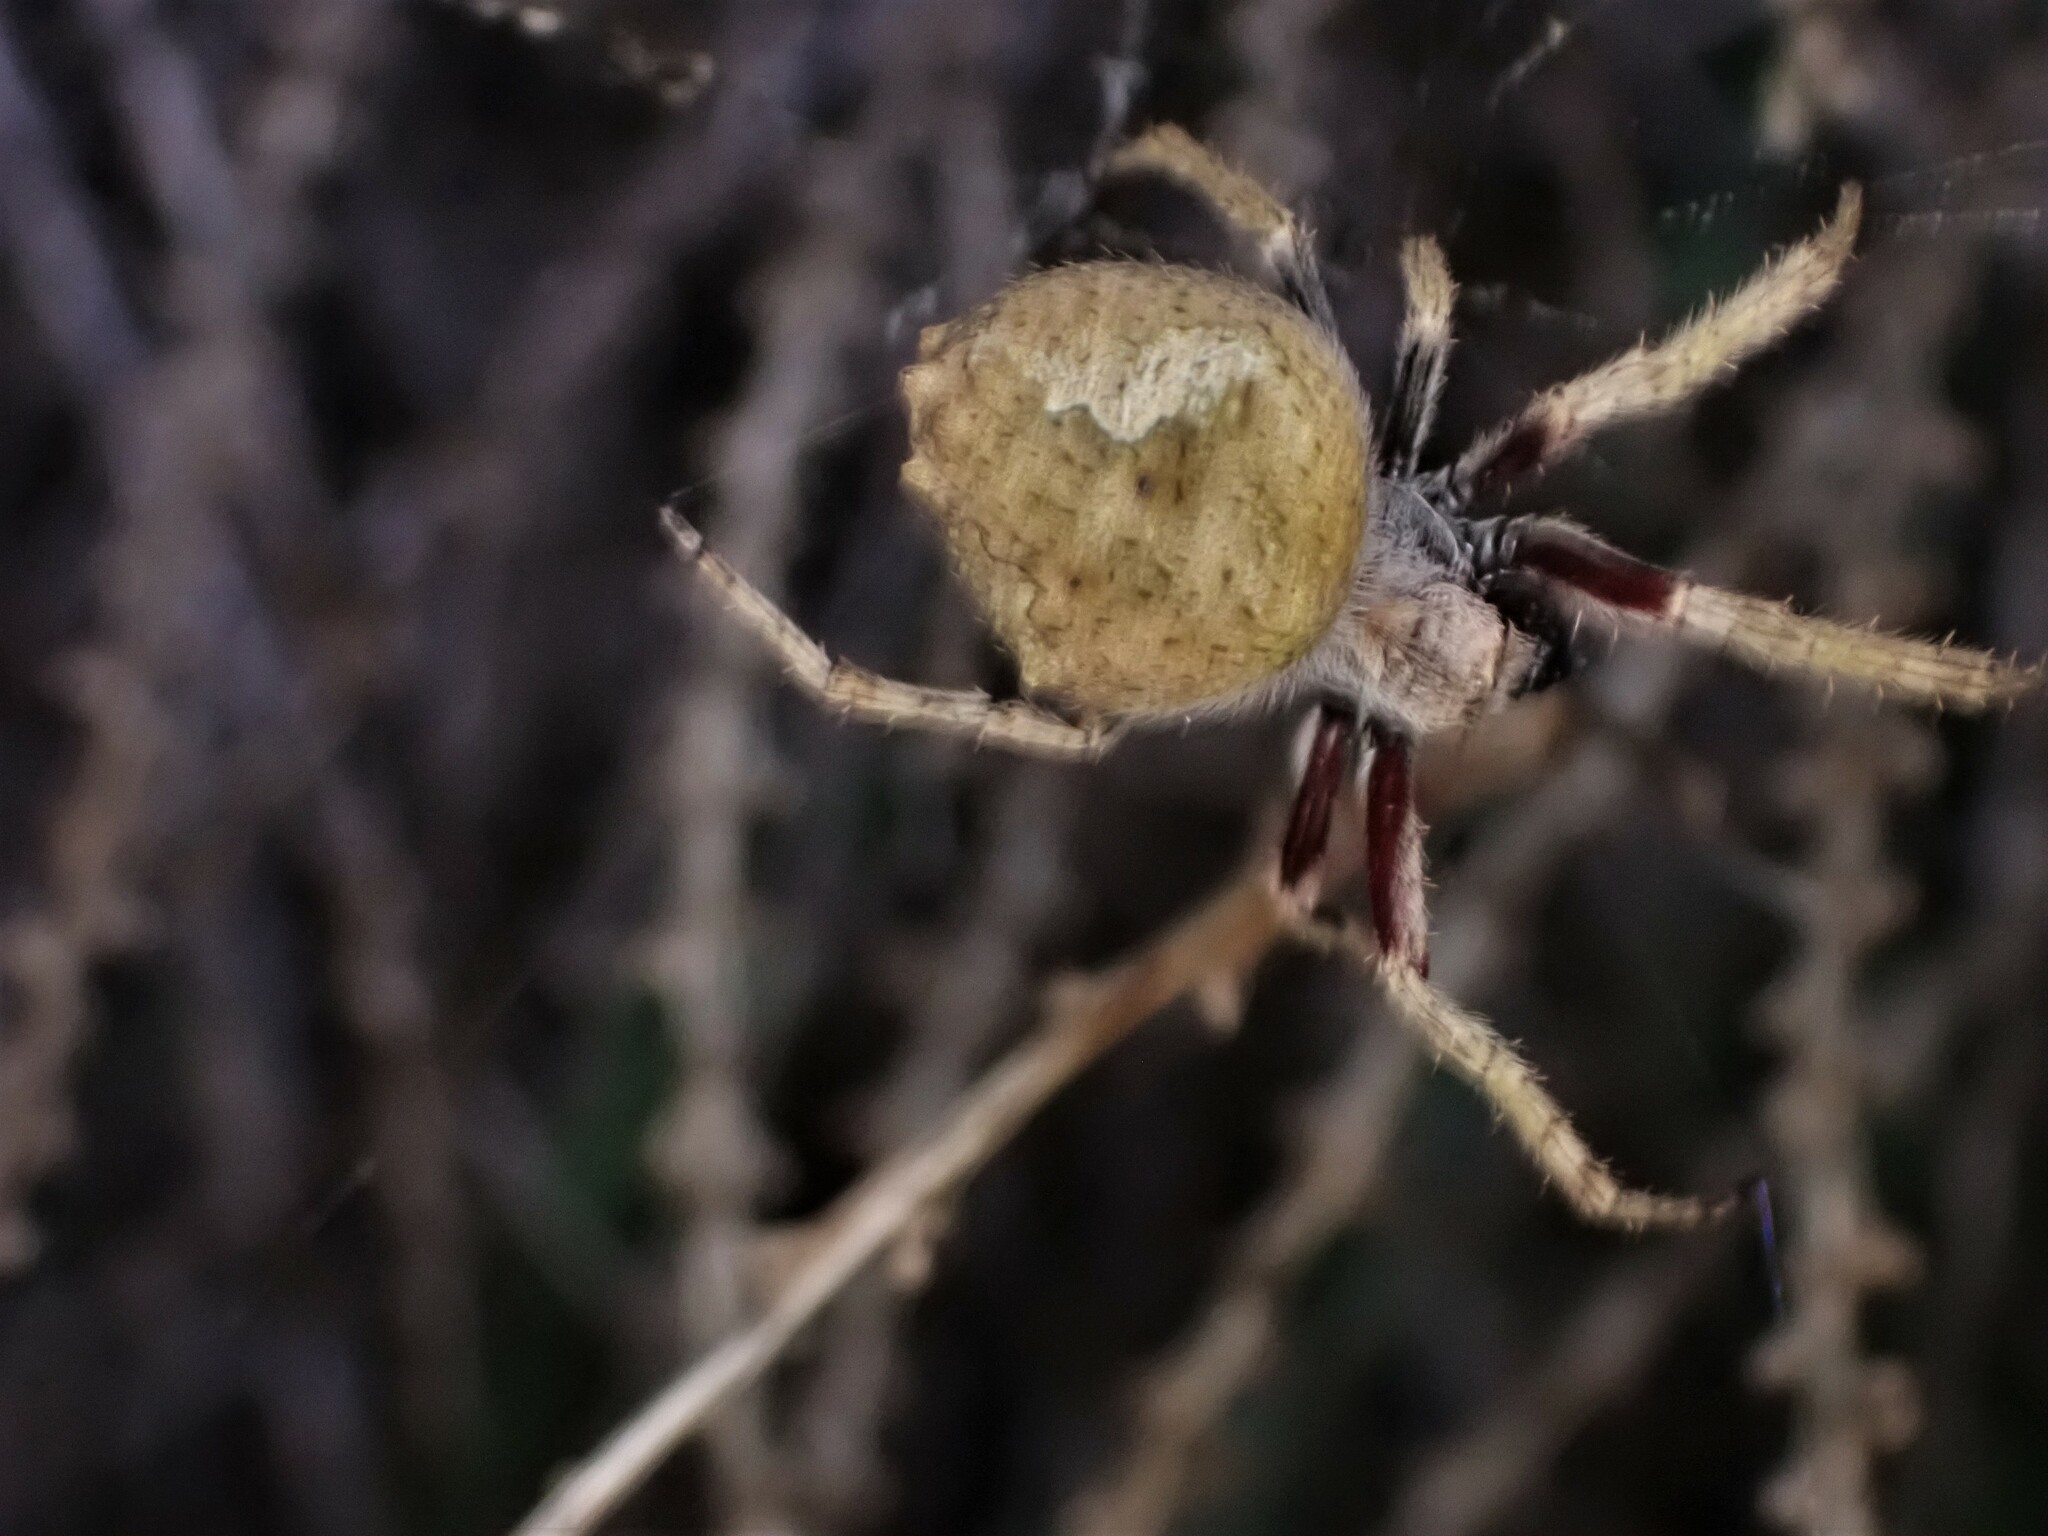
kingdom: Animalia
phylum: Arthropoda
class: Arachnida
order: Araneae
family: Araneidae
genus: Eriophora
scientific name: Eriophora pustulosa
